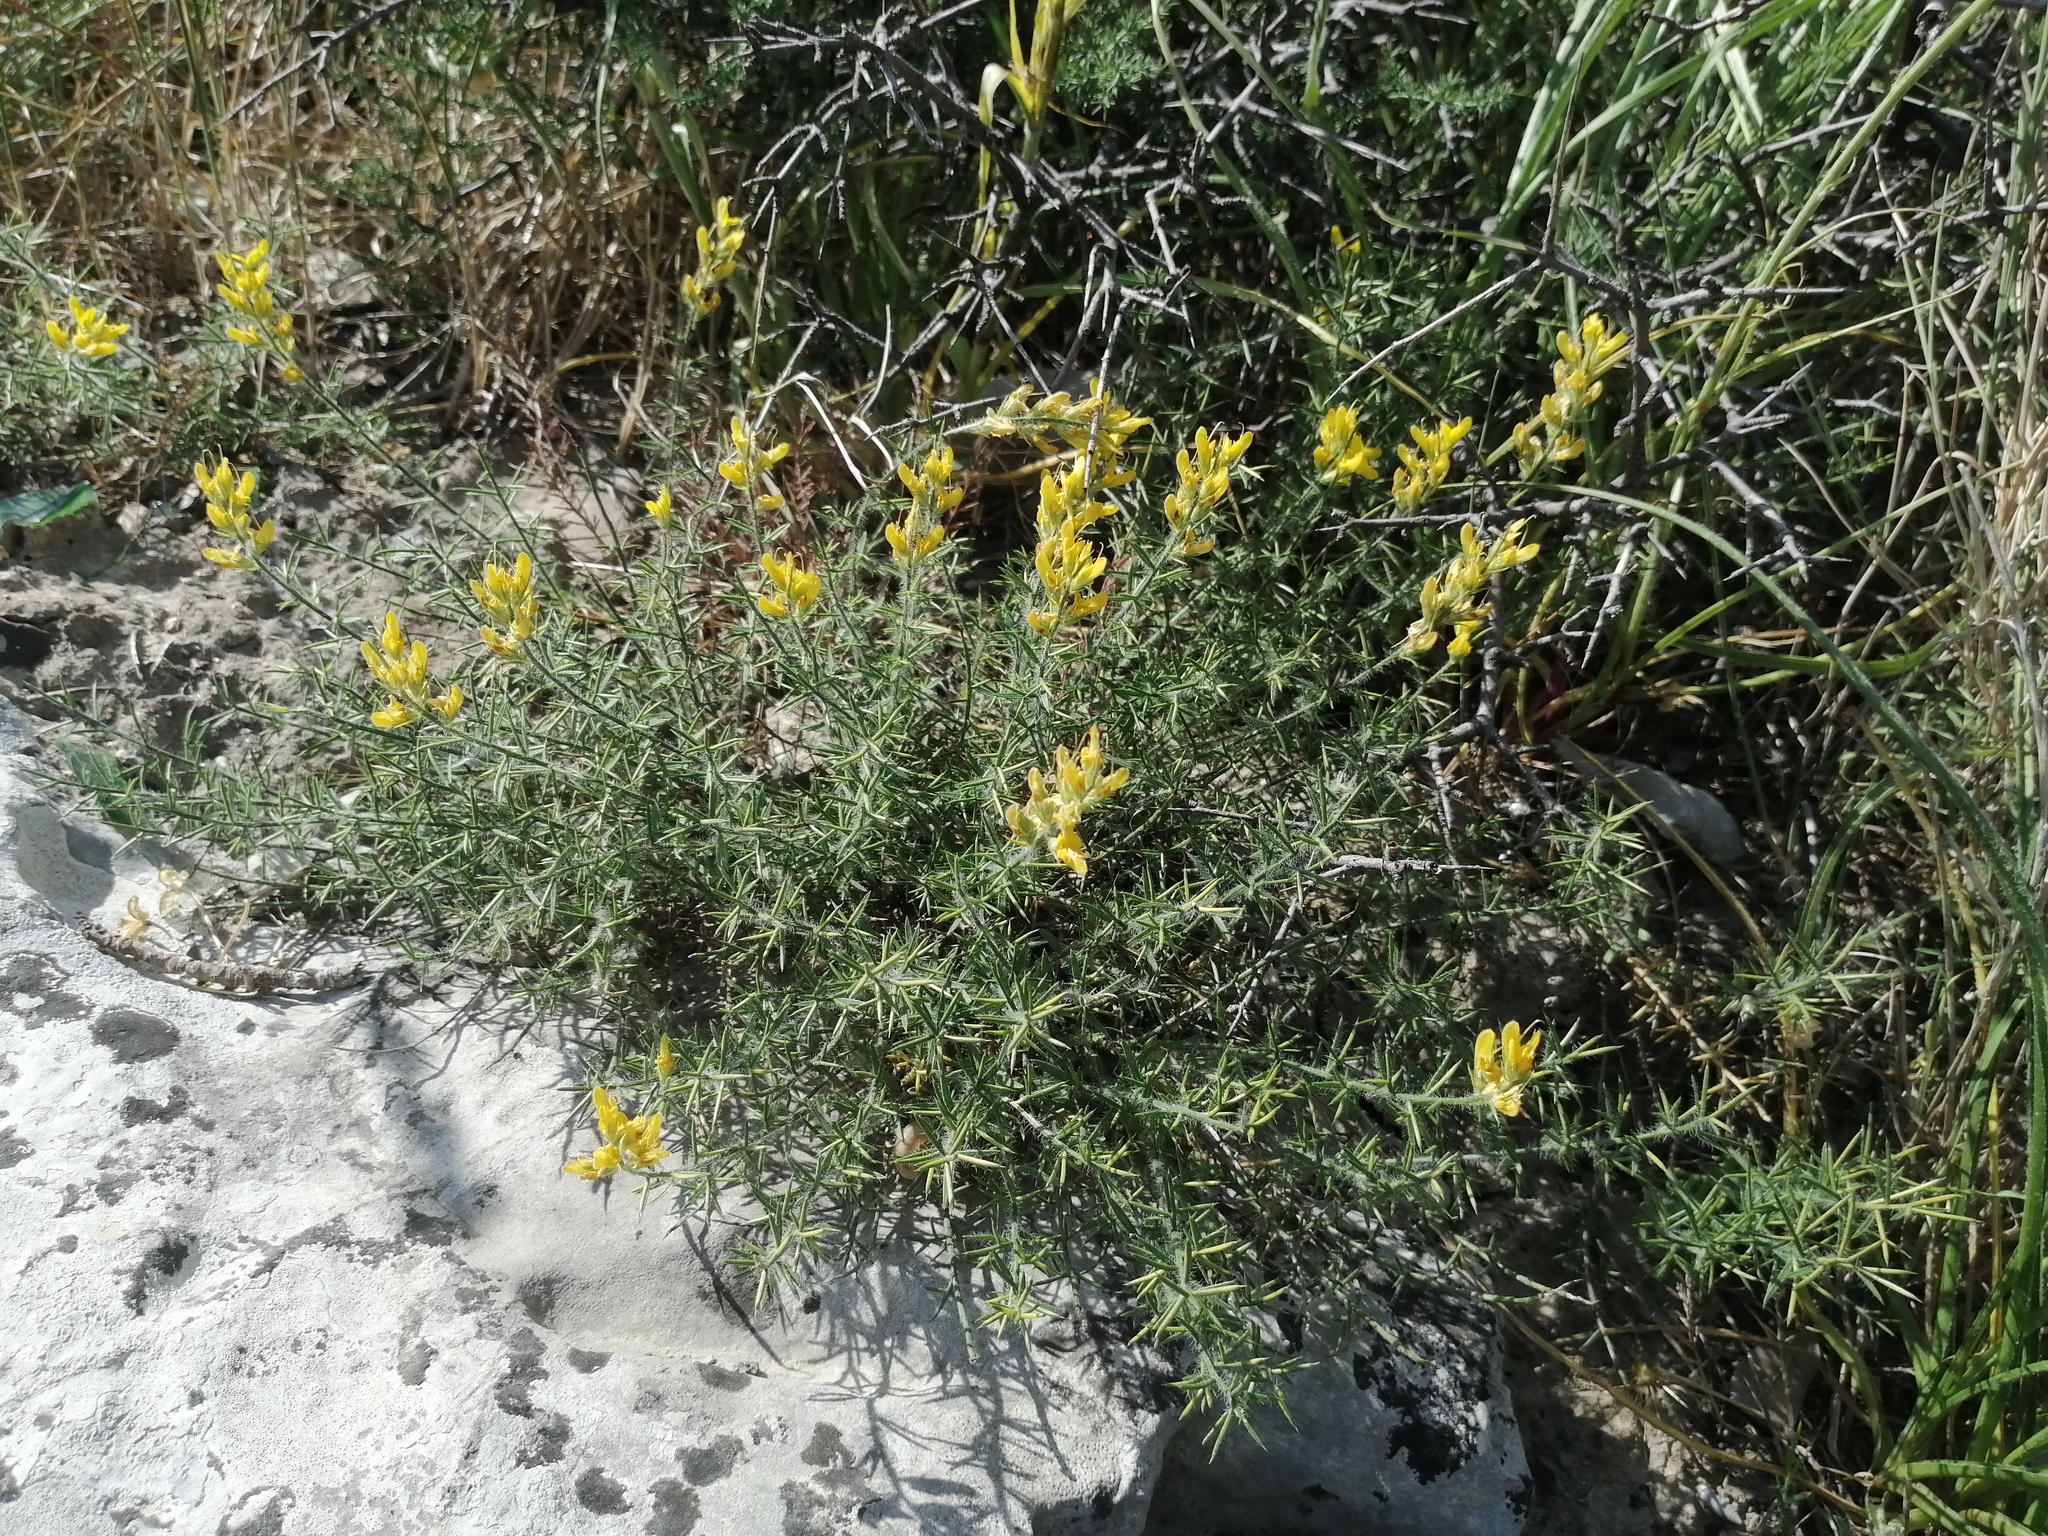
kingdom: Plantae
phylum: Tracheophyta
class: Magnoliopsida
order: Fabales
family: Fabaceae
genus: Genista
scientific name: Genista sylvestris
